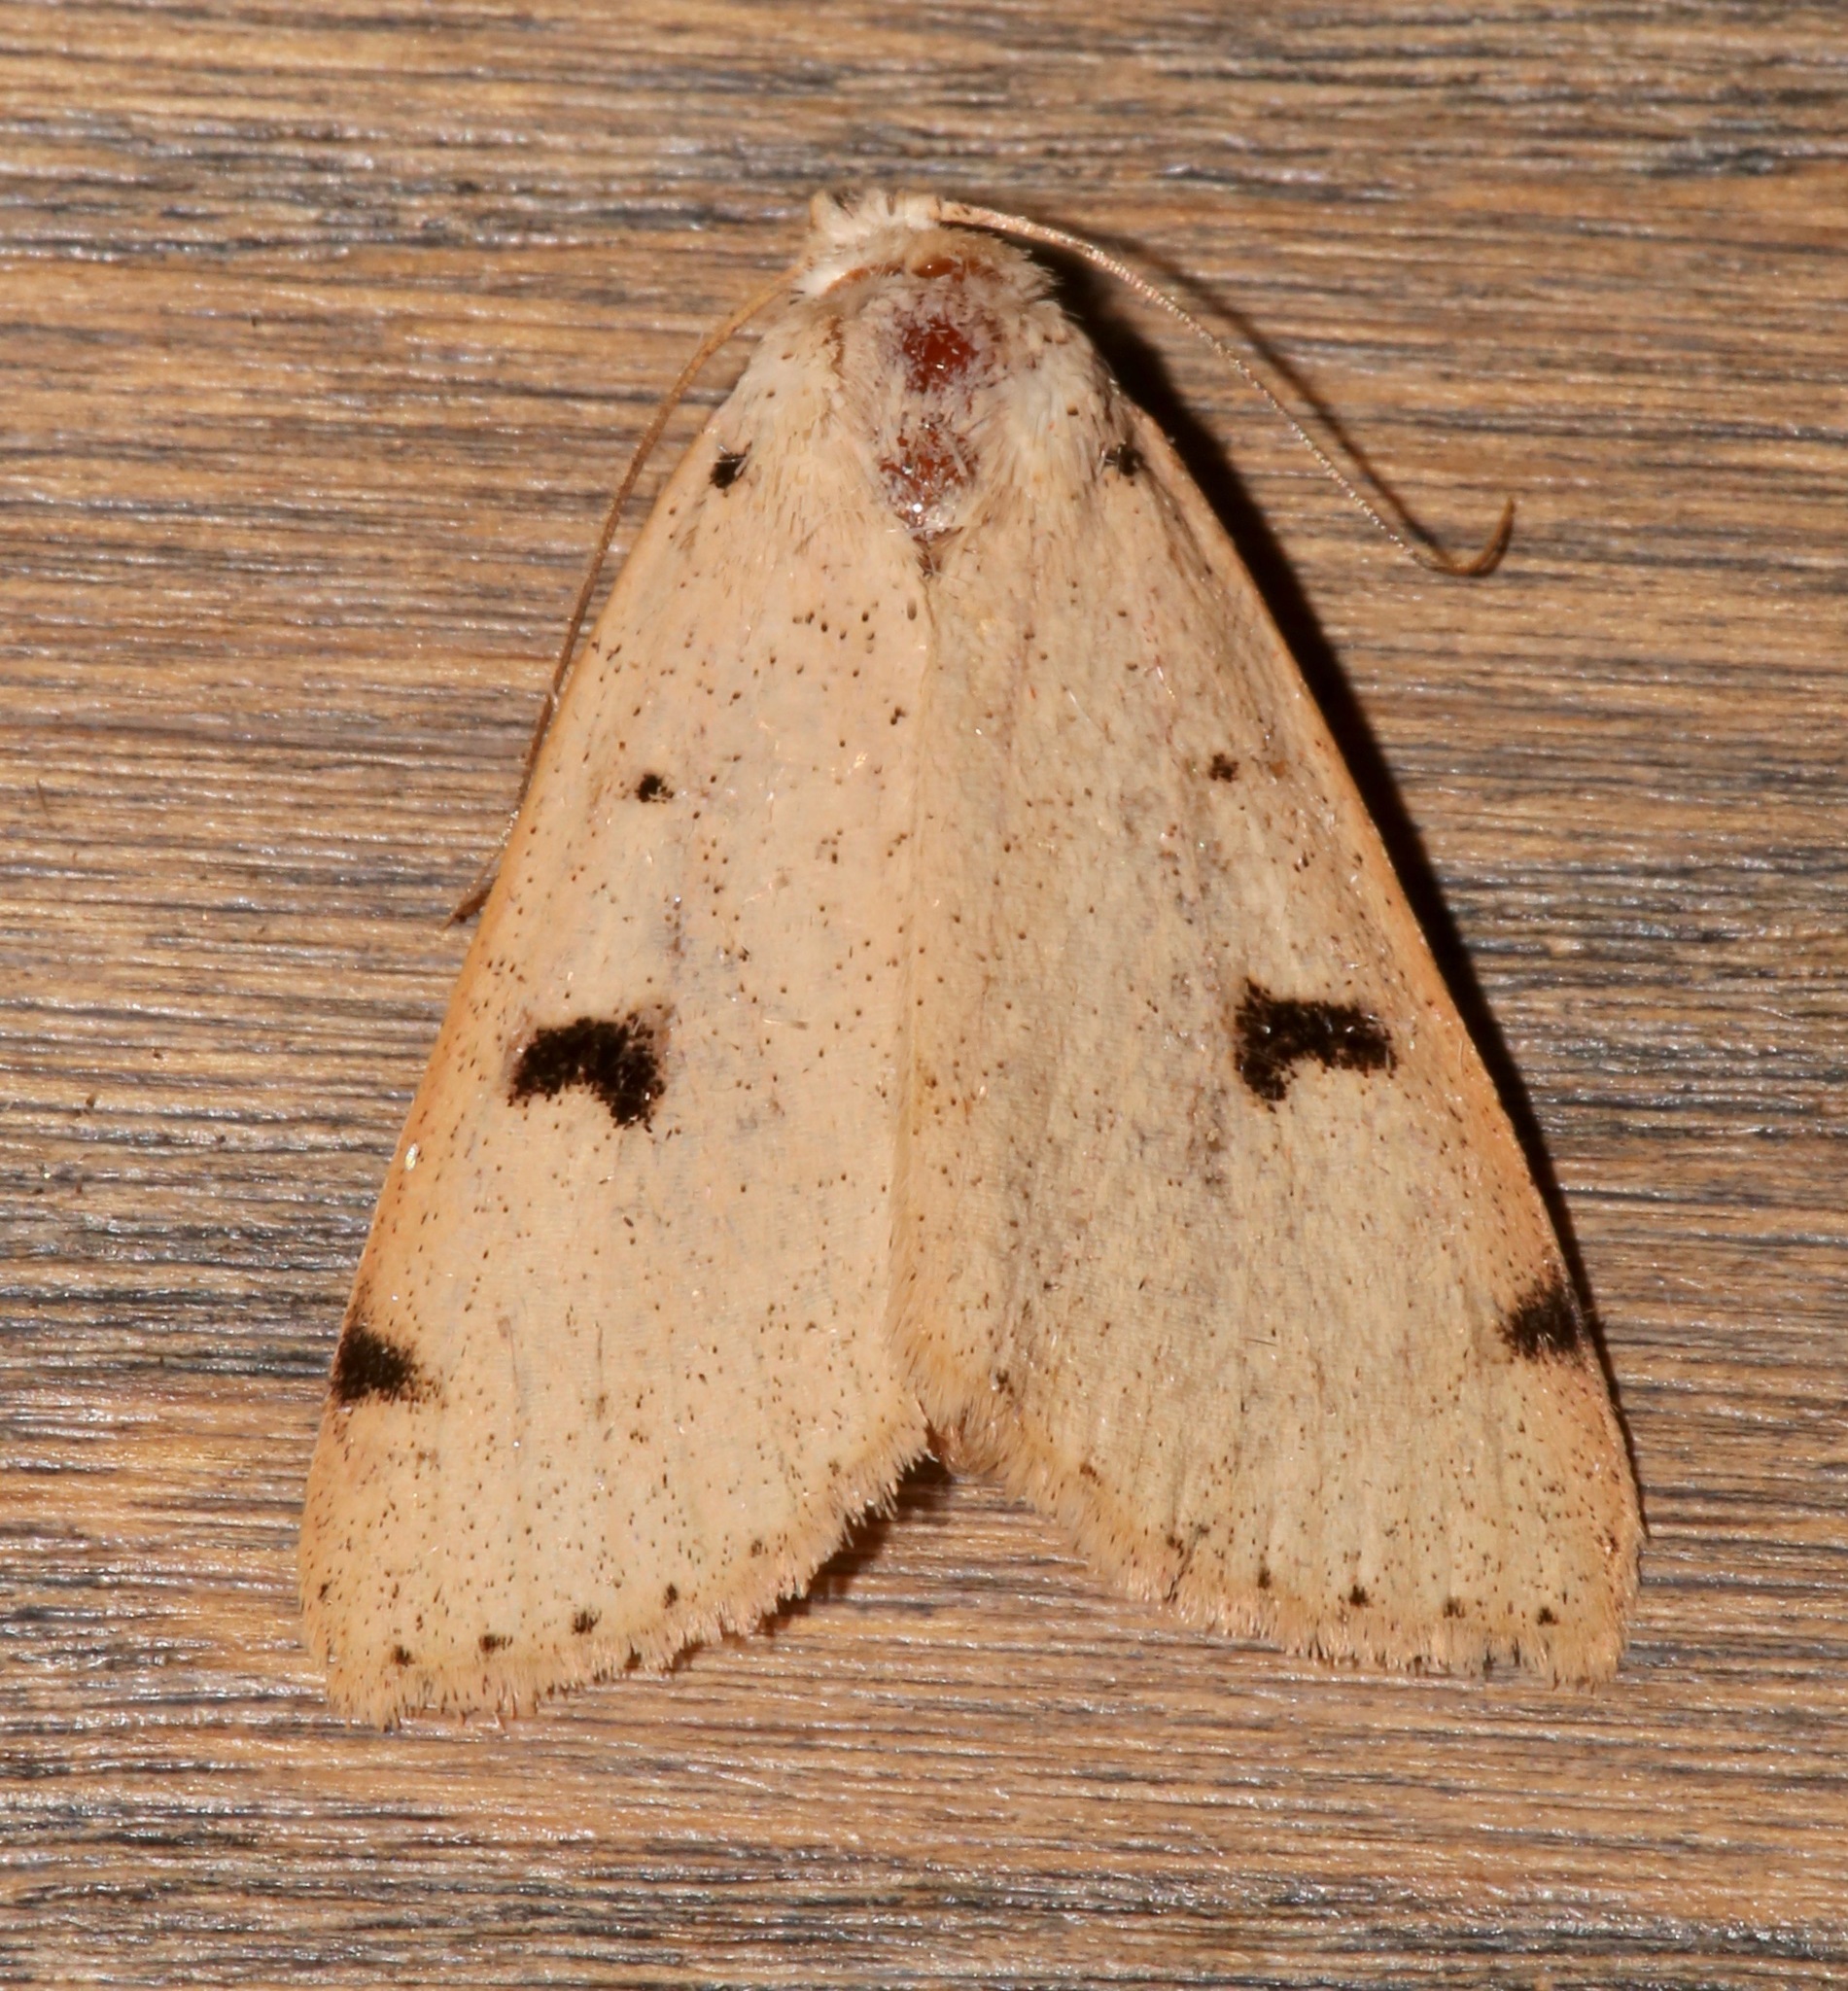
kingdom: Animalia
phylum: Arthropoda
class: Insecta
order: Lepidoptera
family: Erebidae
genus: Scolecocampa
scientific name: Scolecocampa atriluna
